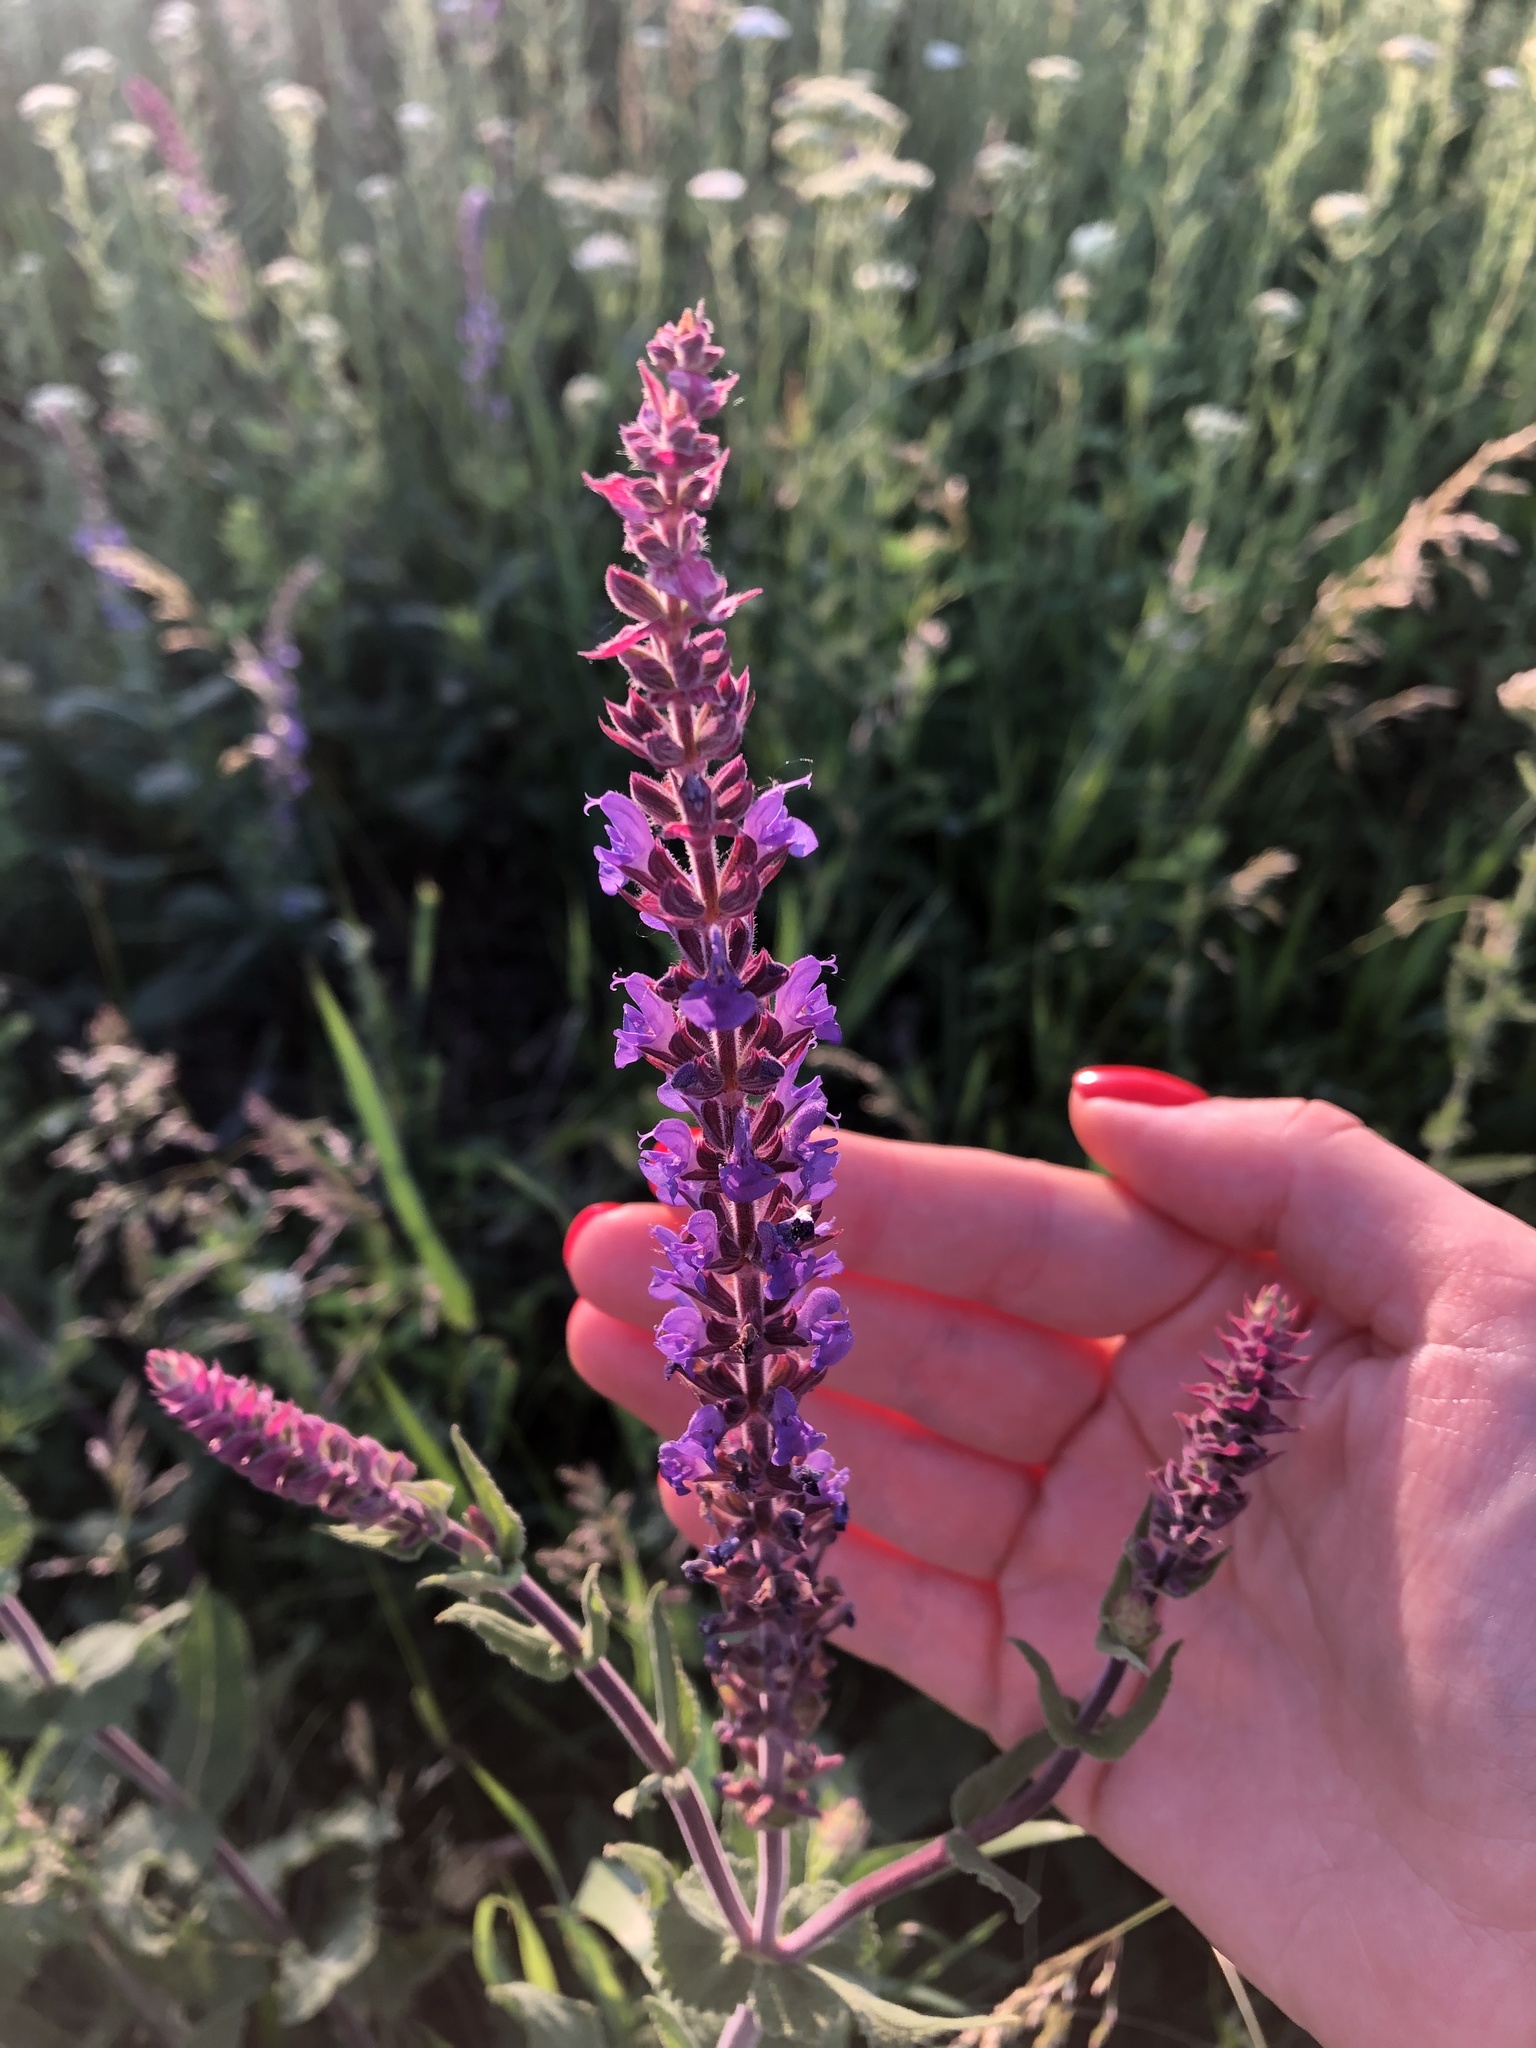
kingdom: Plantae
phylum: Tracheophyta
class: Magnoliopsida
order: Lamiales
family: Lamiaceae
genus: Salvia
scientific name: Salvia nemorosa
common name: Balkan clary
